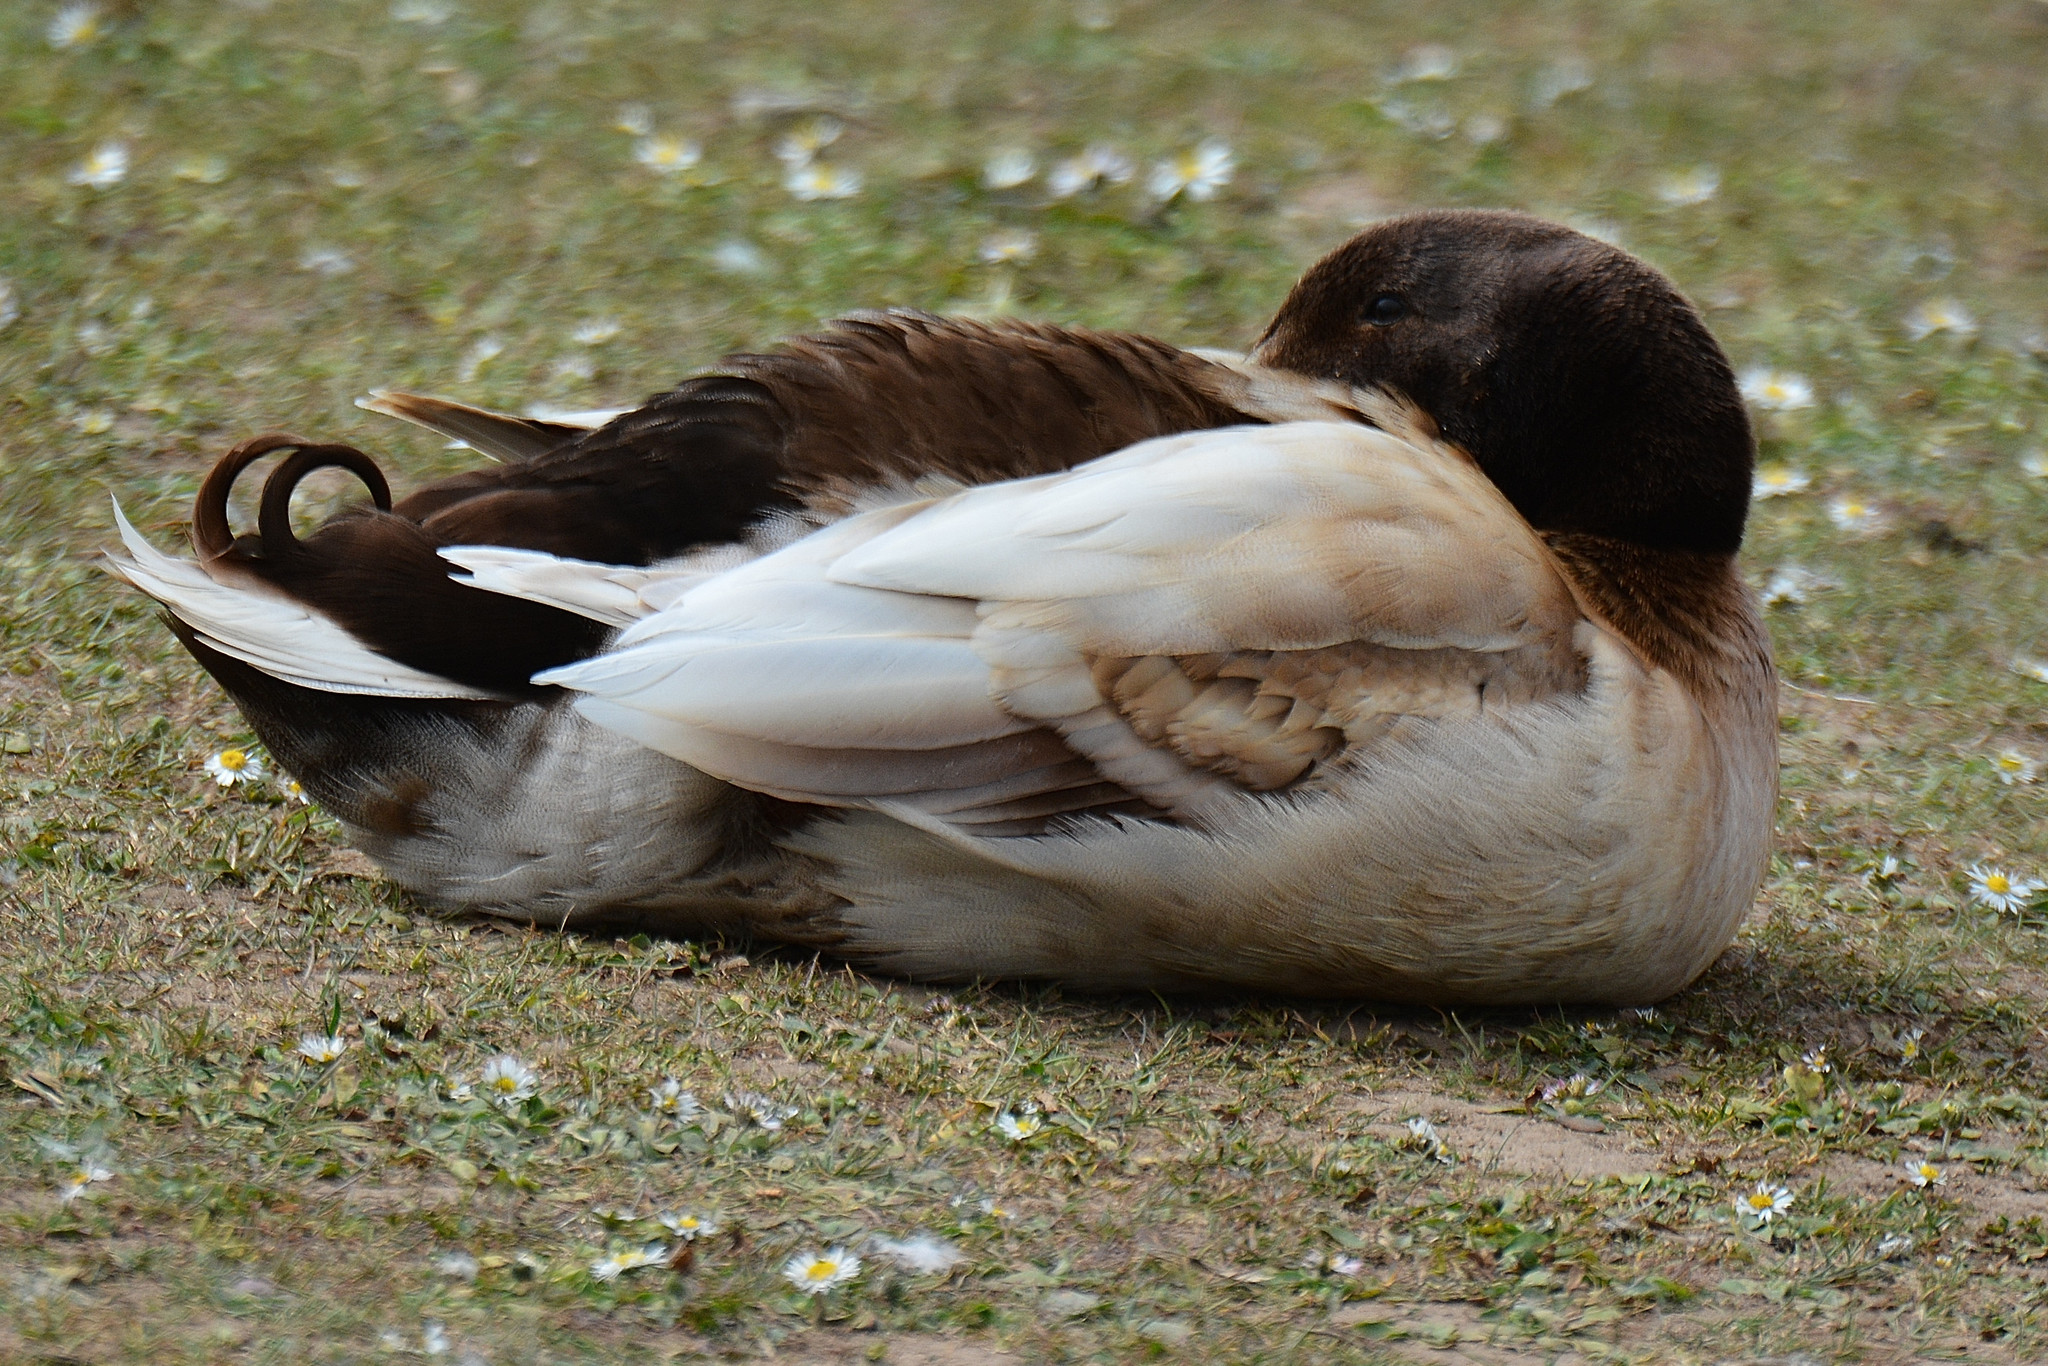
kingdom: Animalia
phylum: Chordata
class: Aves
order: Anseriformes
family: Anatidae
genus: Anas
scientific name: Anas platyrhynchos
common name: Mallard
